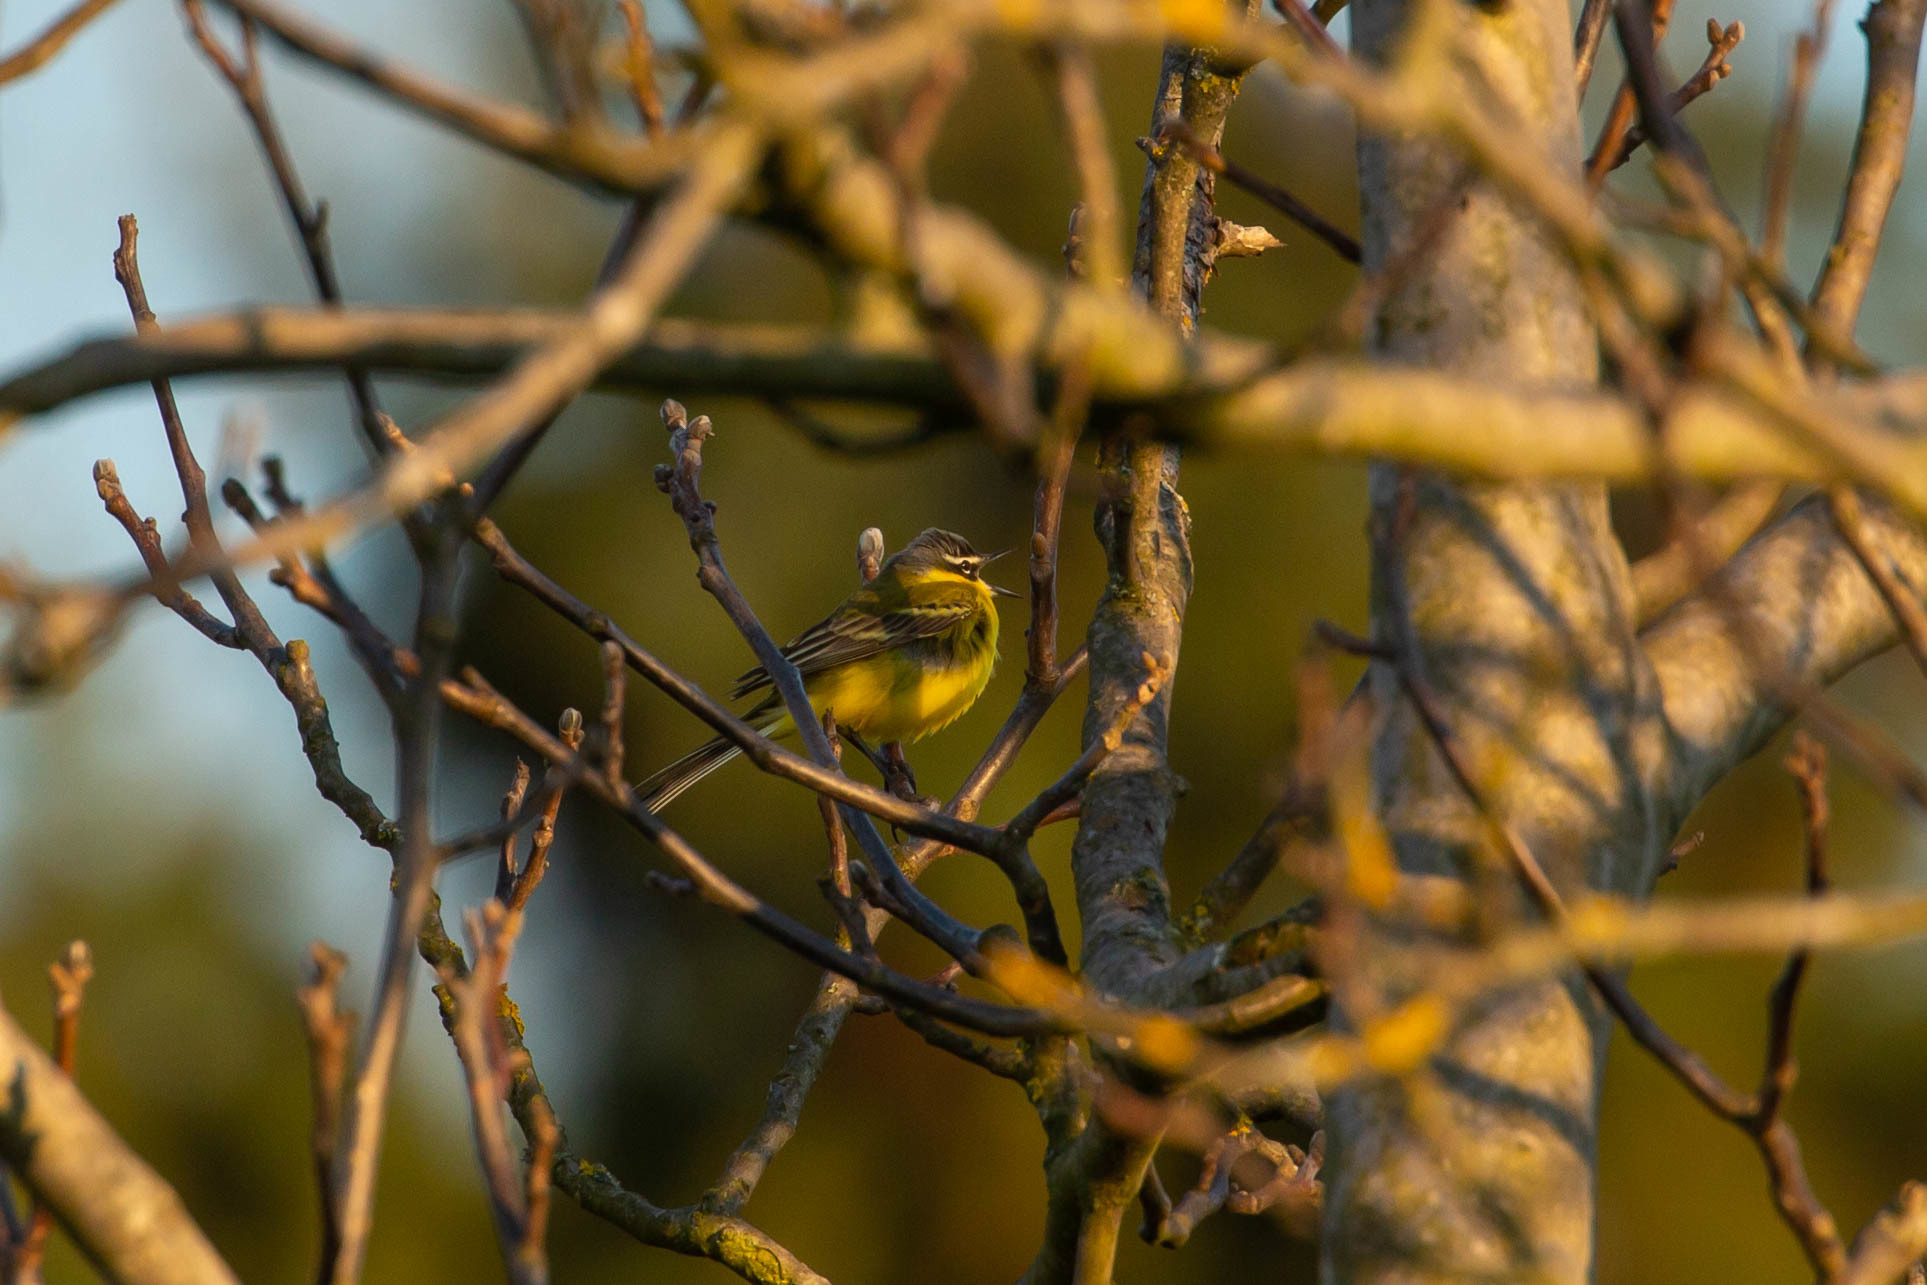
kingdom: Animalia
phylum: Chordata
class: Aves
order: Passeriformes
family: Motacillidae
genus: Motacilla
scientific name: Motacilla flava
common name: Western yellow wagtail
